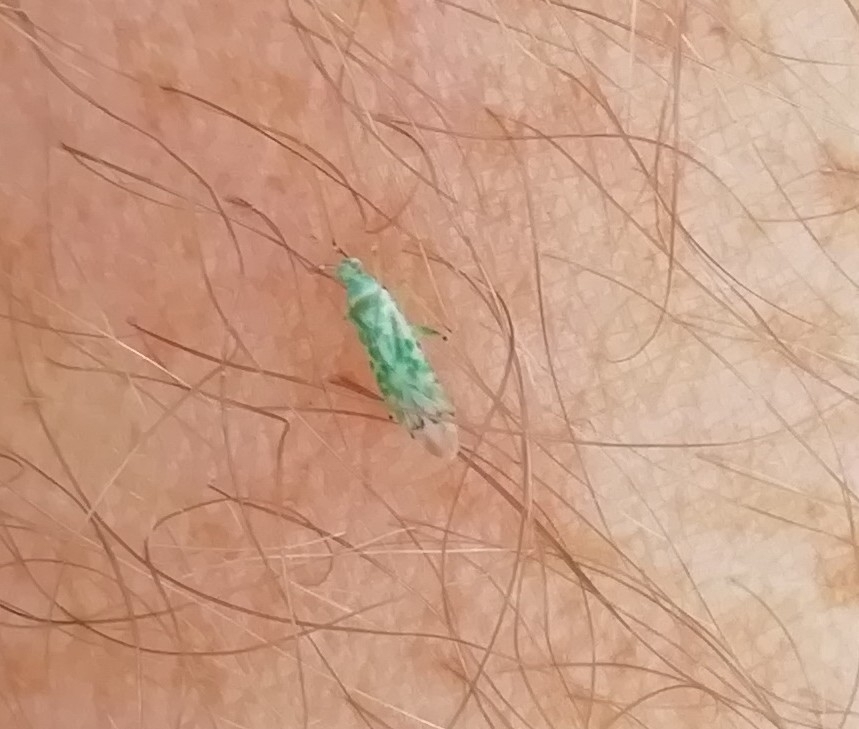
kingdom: Animalia
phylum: Arthropoda
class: Insecta
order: Hemiptera
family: Miridae
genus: Reuteria
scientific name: Reuteria marqueti
